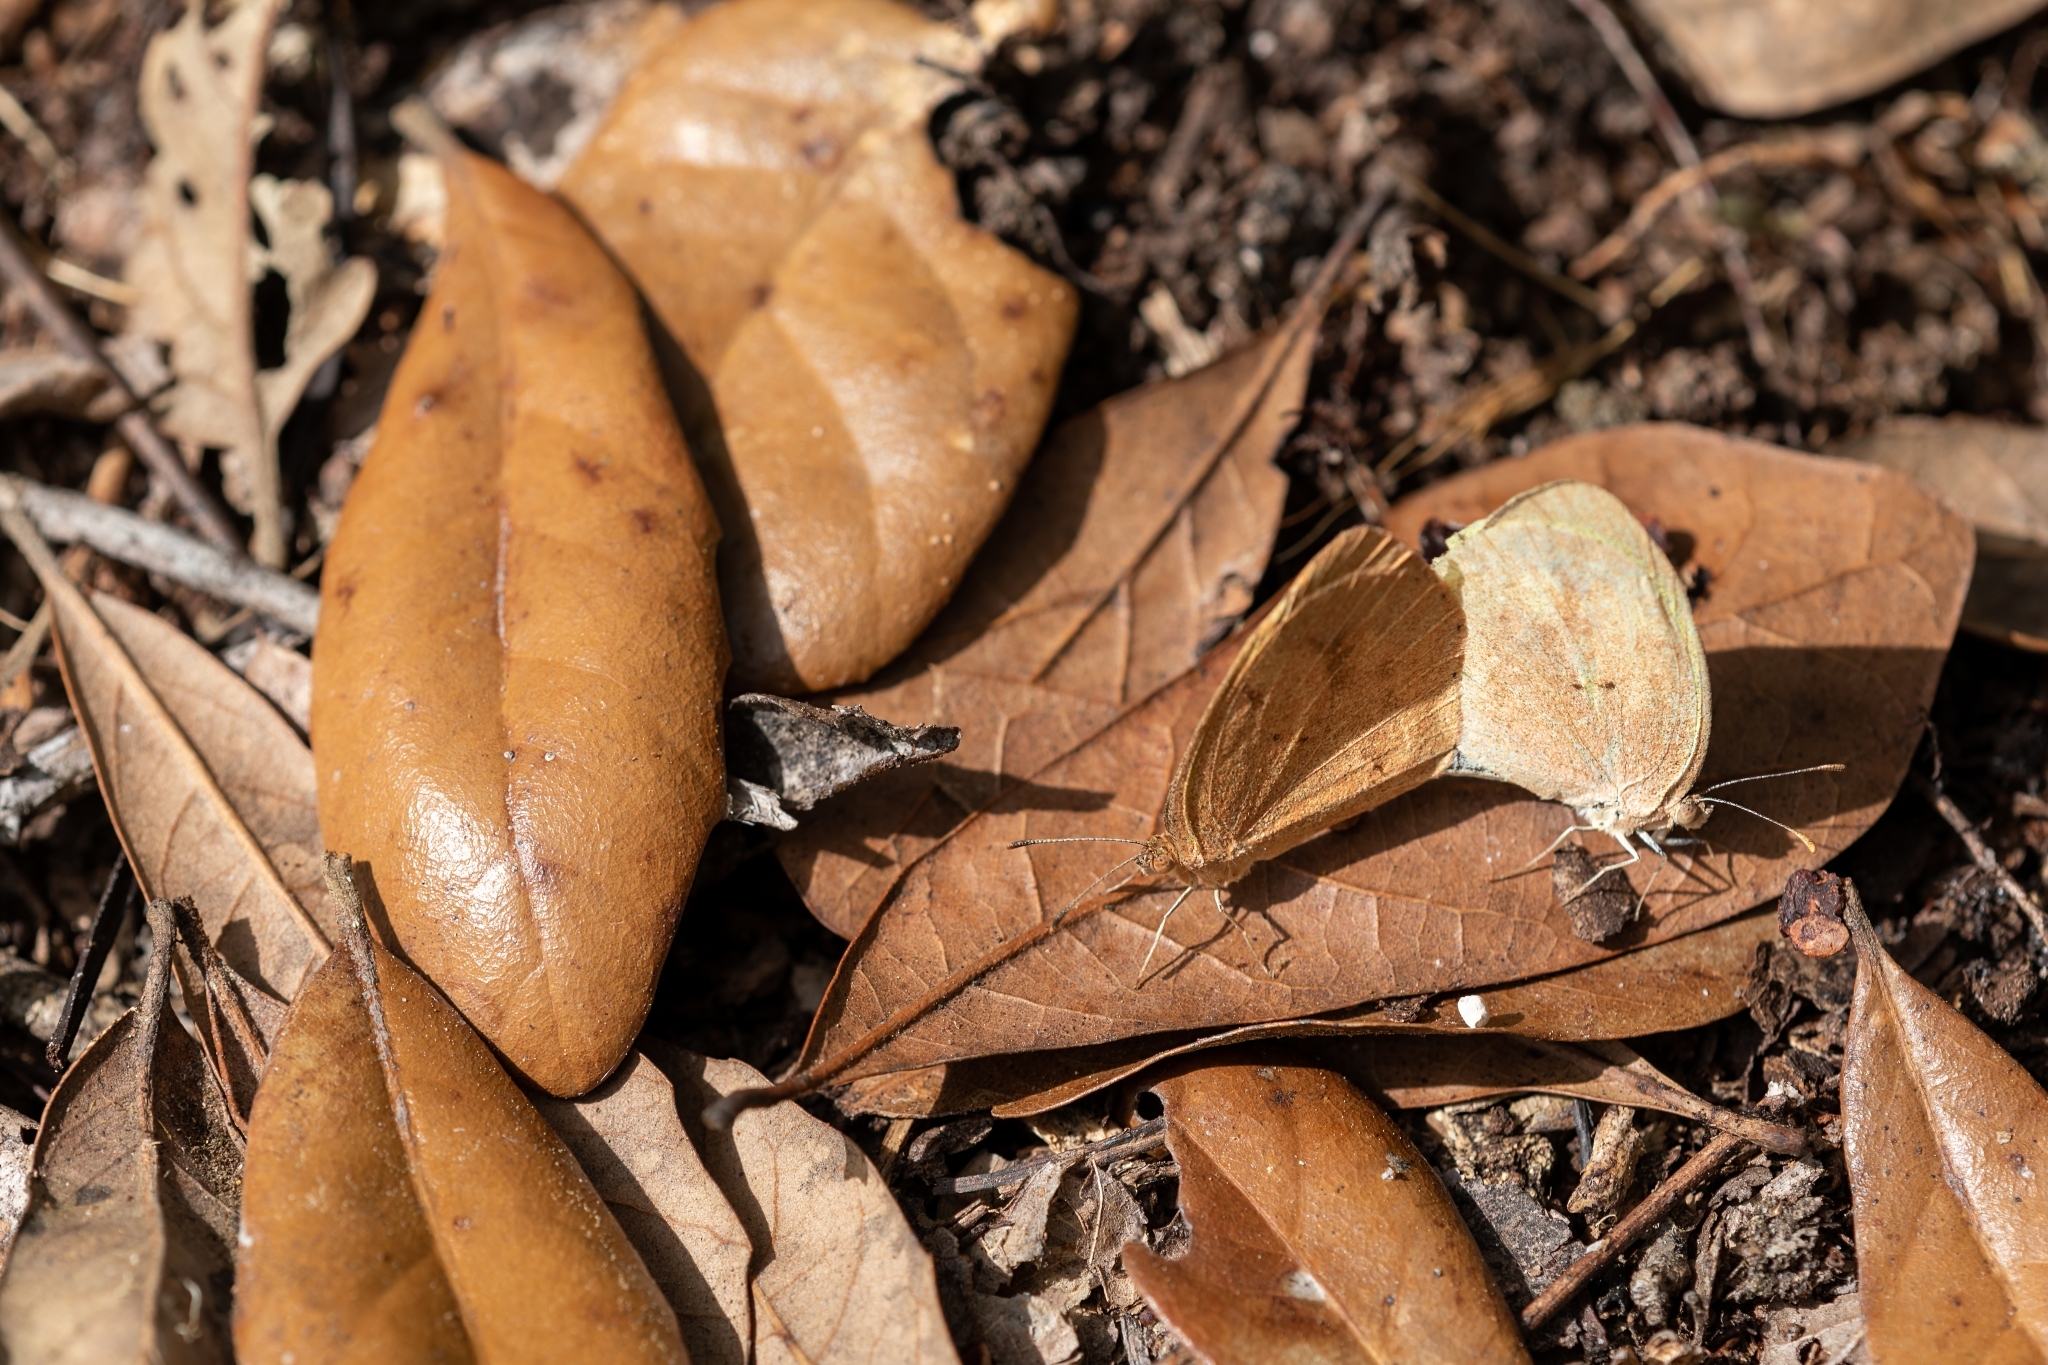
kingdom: Animalia
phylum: Arthropoda
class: Insecta
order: Lepidoptera
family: Pieridae
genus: Eurema
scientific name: Eurema daira
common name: Barred sulphur
